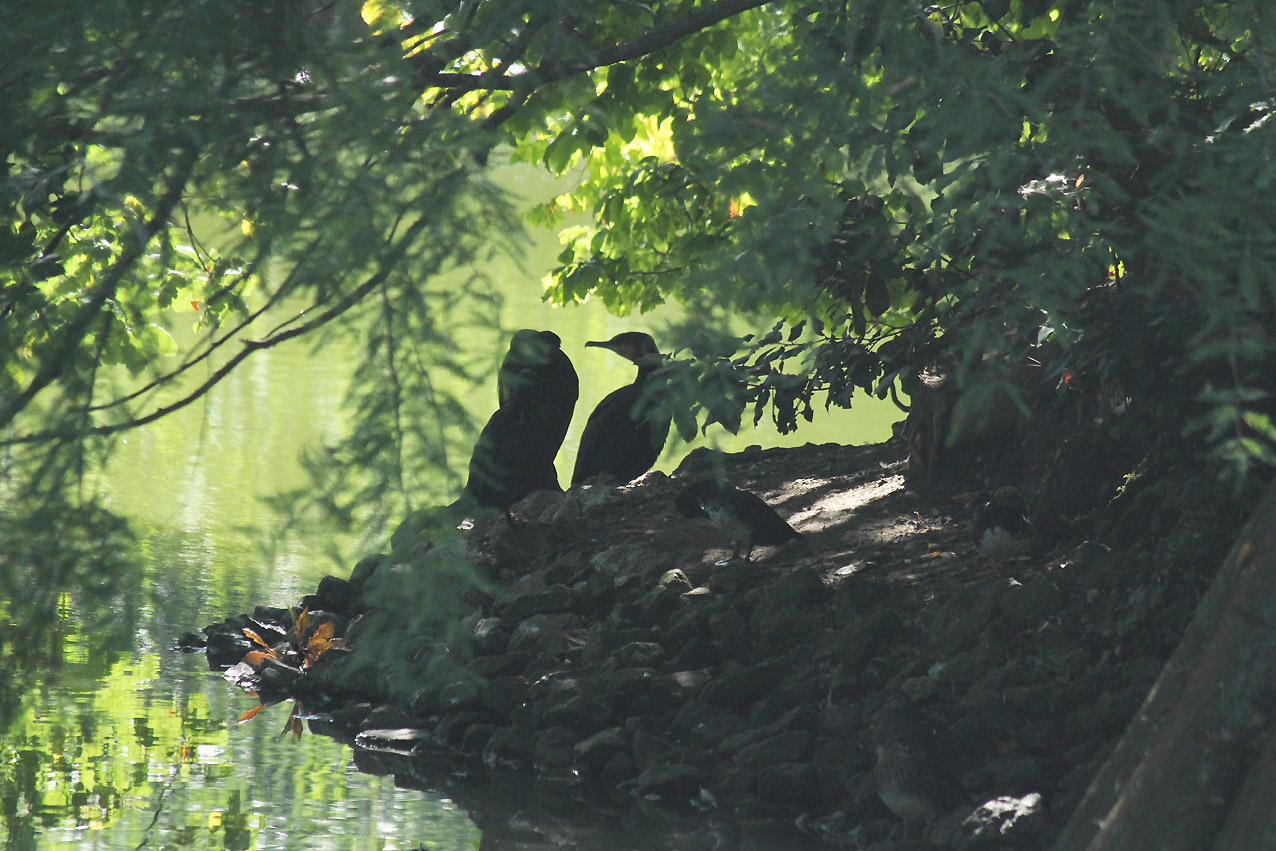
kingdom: Animalia
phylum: Chordata
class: Aves
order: Suliformes
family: Phalacrocoracidae
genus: Phalacrocorax
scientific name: Phalacrocorax carbo
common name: Great cormorant
